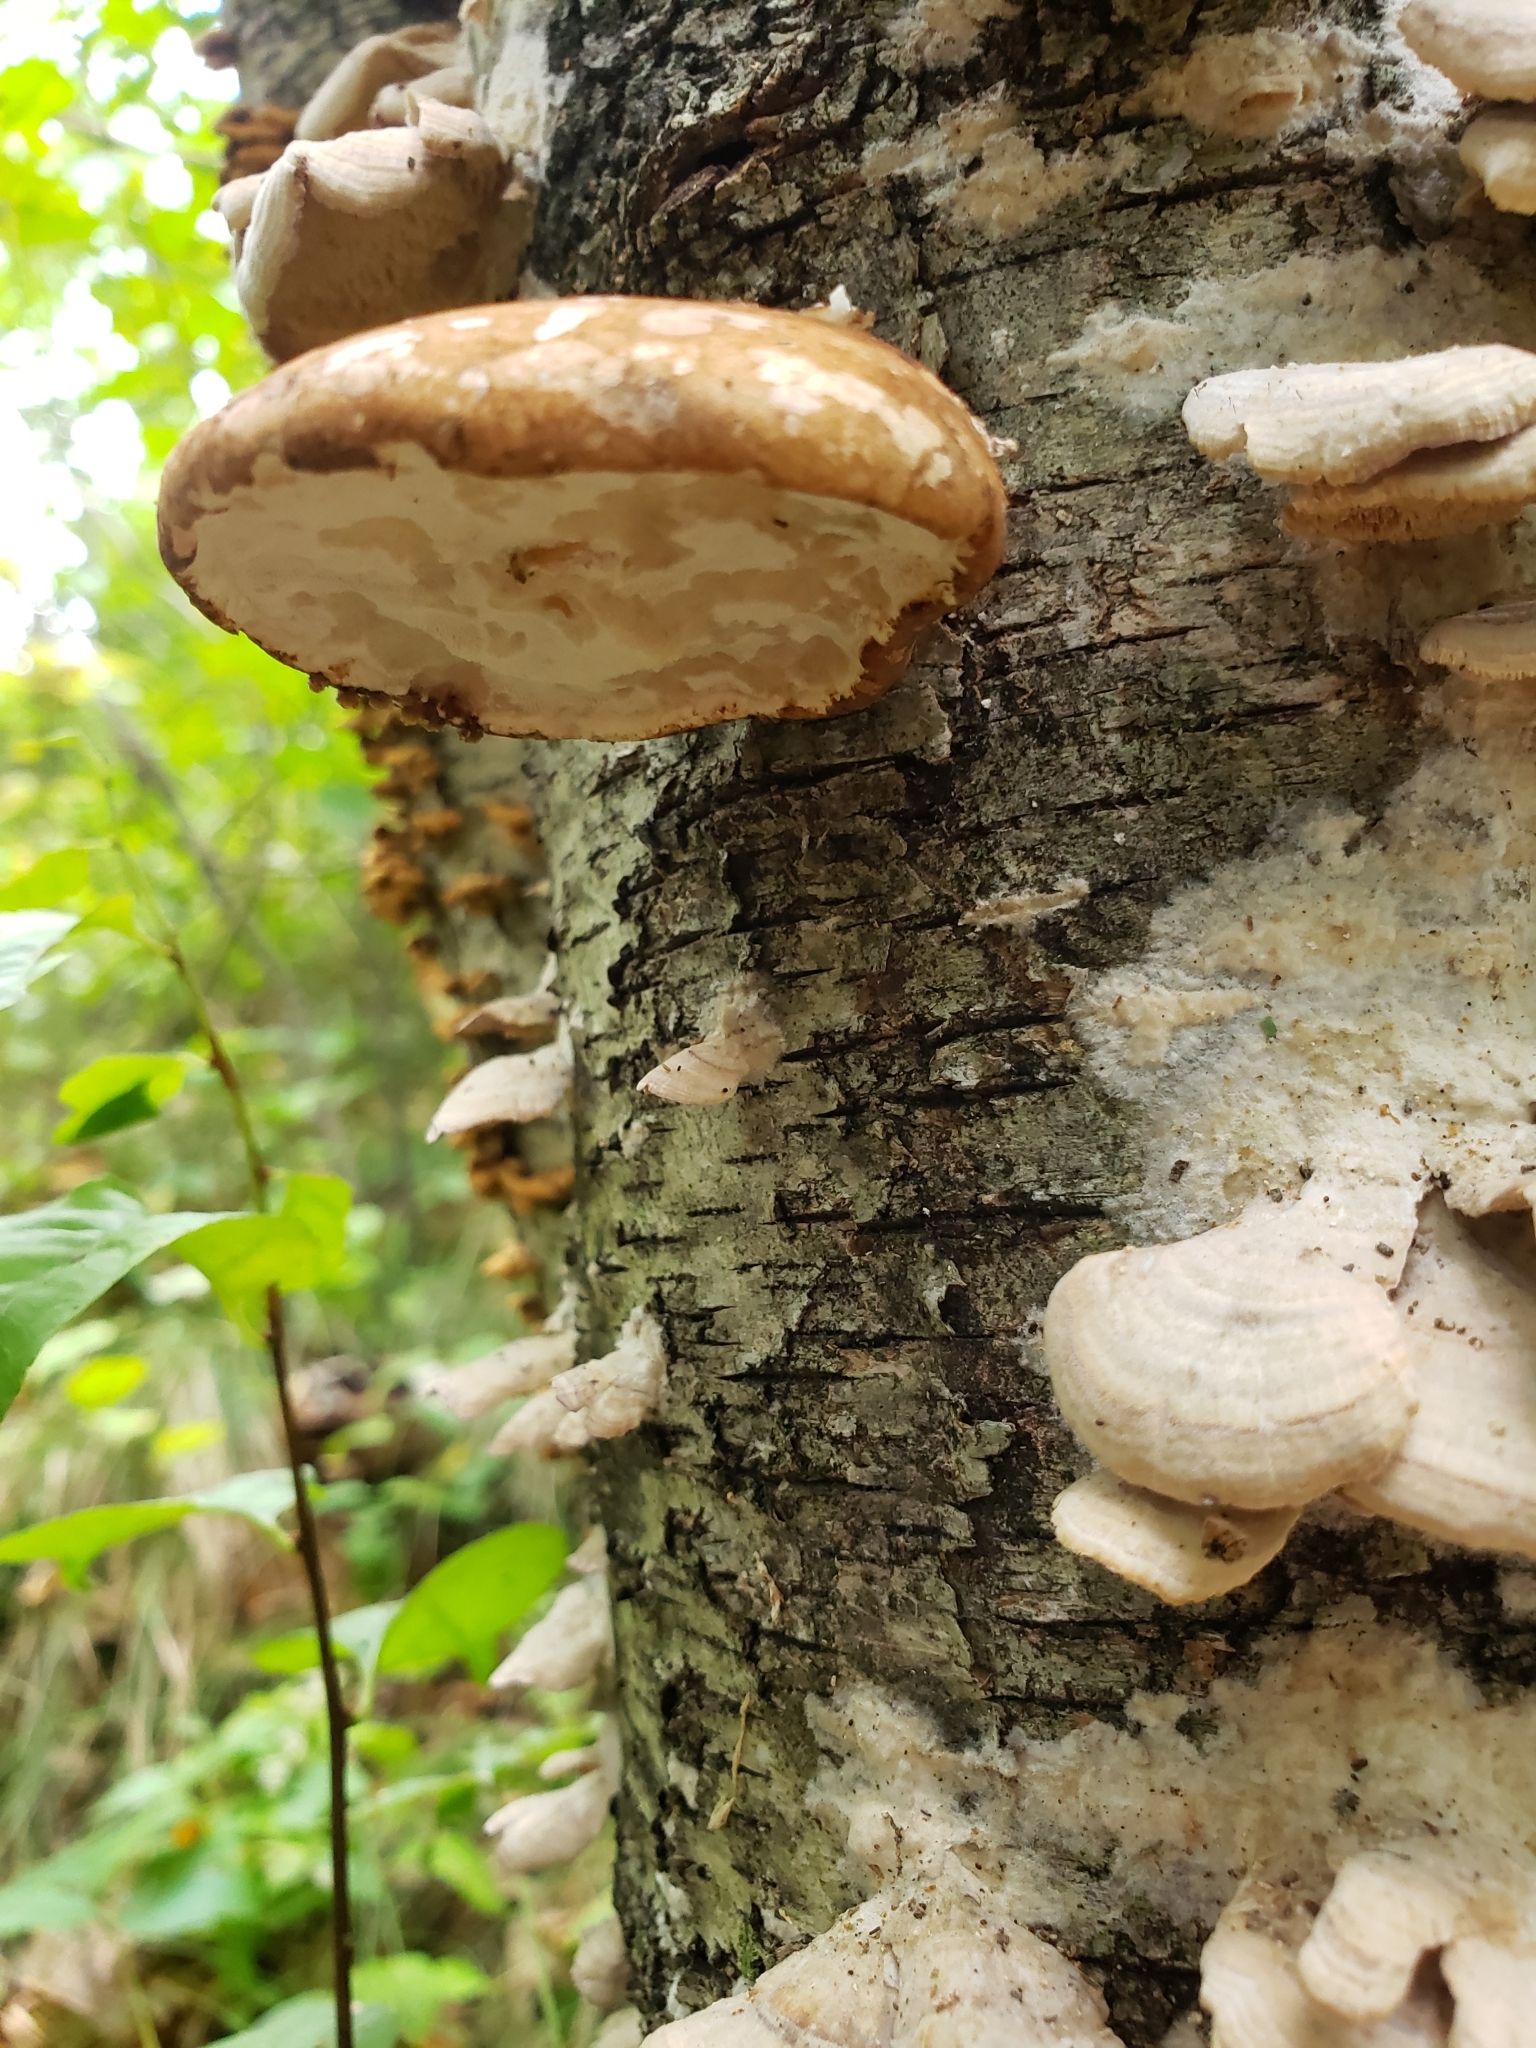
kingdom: Fungi
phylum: Basidiomycota
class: Agaricomycetes
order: Polyporales
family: Fomitopsidaceae
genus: Fomitopsis
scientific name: Fomitopsis betulina
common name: Birch polypore
